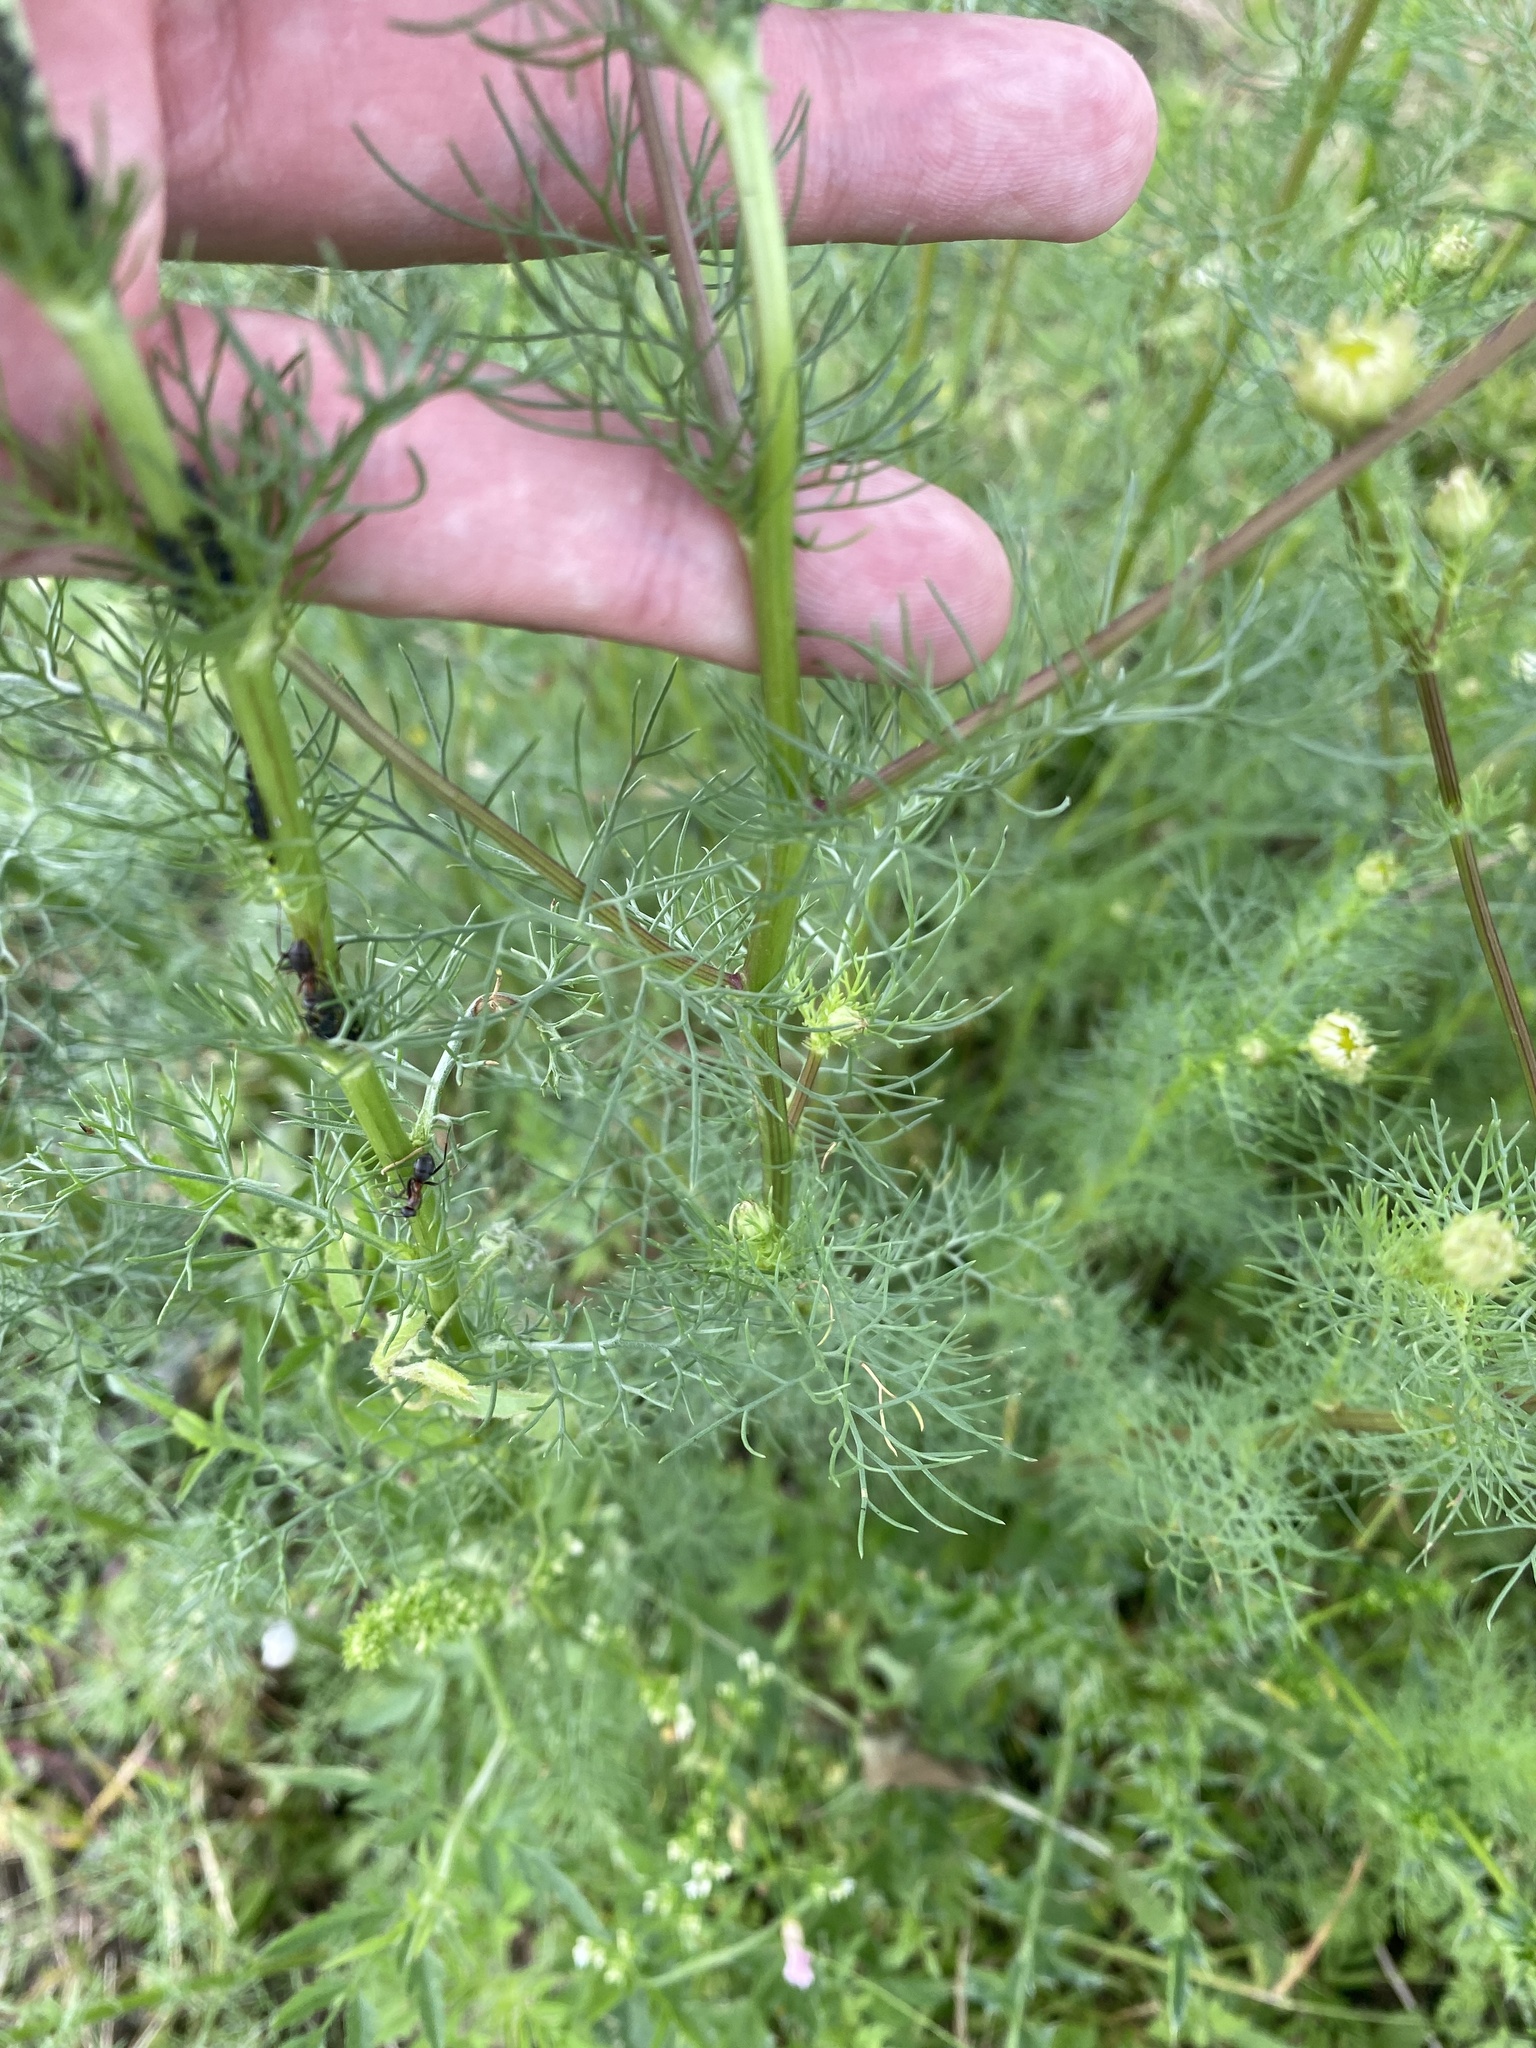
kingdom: Plantae
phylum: Tracheophyta
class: Magnoliopsida
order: Asterales
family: Asteraceae
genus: Tripleurospermum
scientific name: Tripleurospermum inodorum
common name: Scentless mayweed
